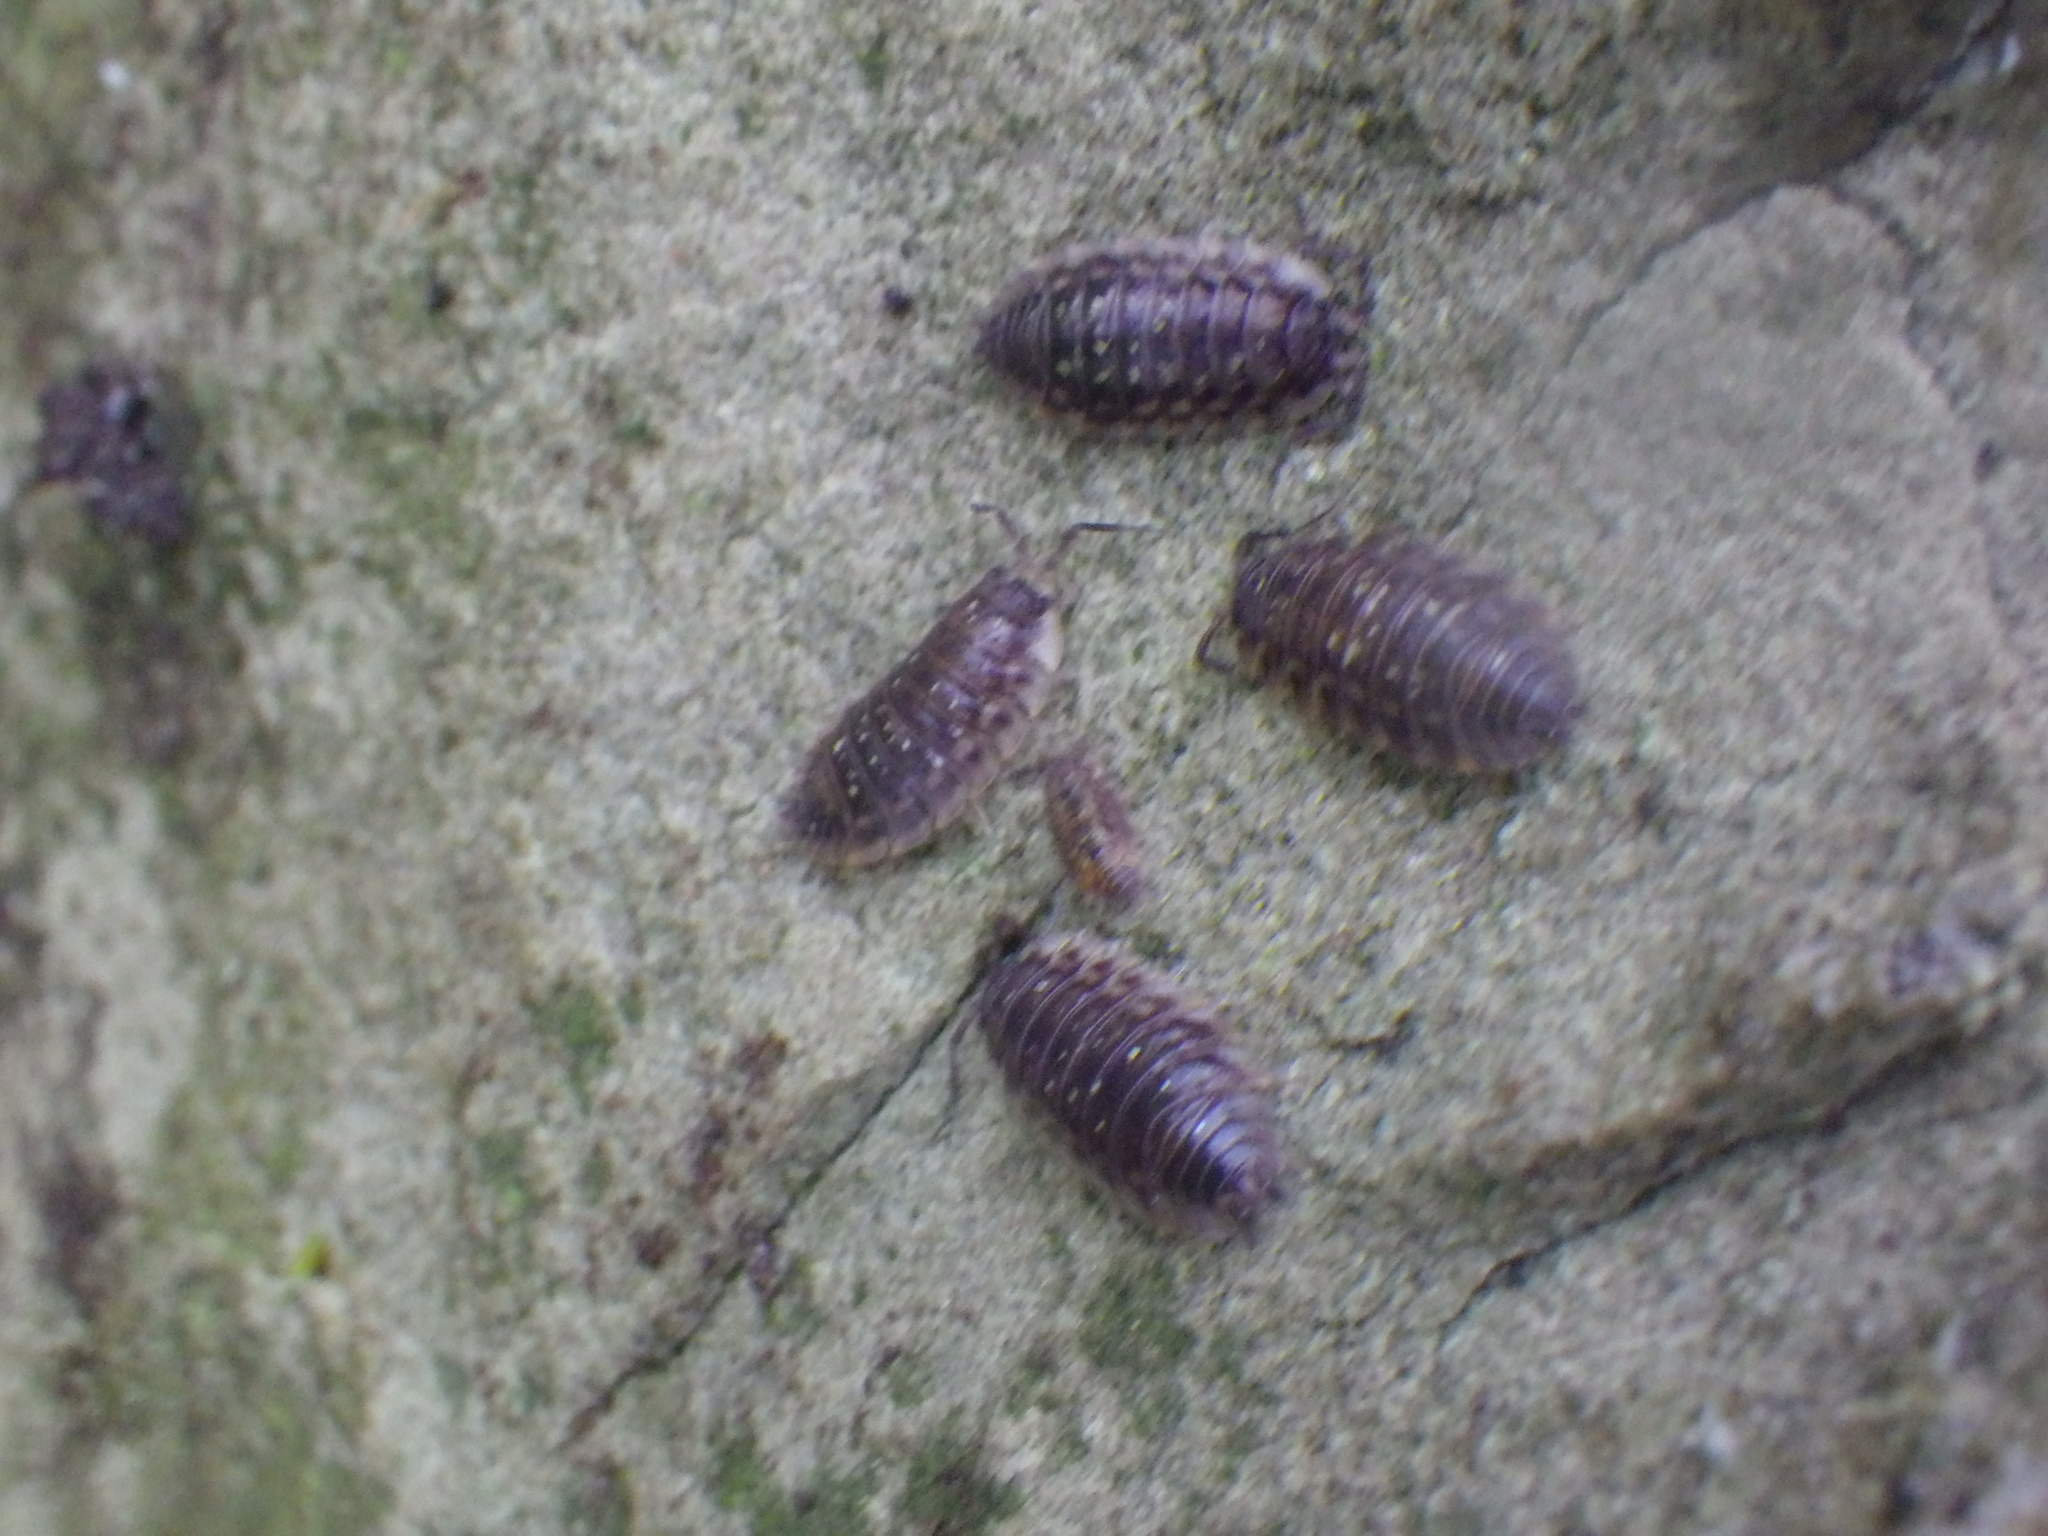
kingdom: Animalia
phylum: Arthropoda
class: Malacostraca
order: Isopoda
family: Oniscidae
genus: Oniscus
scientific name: Oniscus asellus
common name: Common shiny woodlouse
